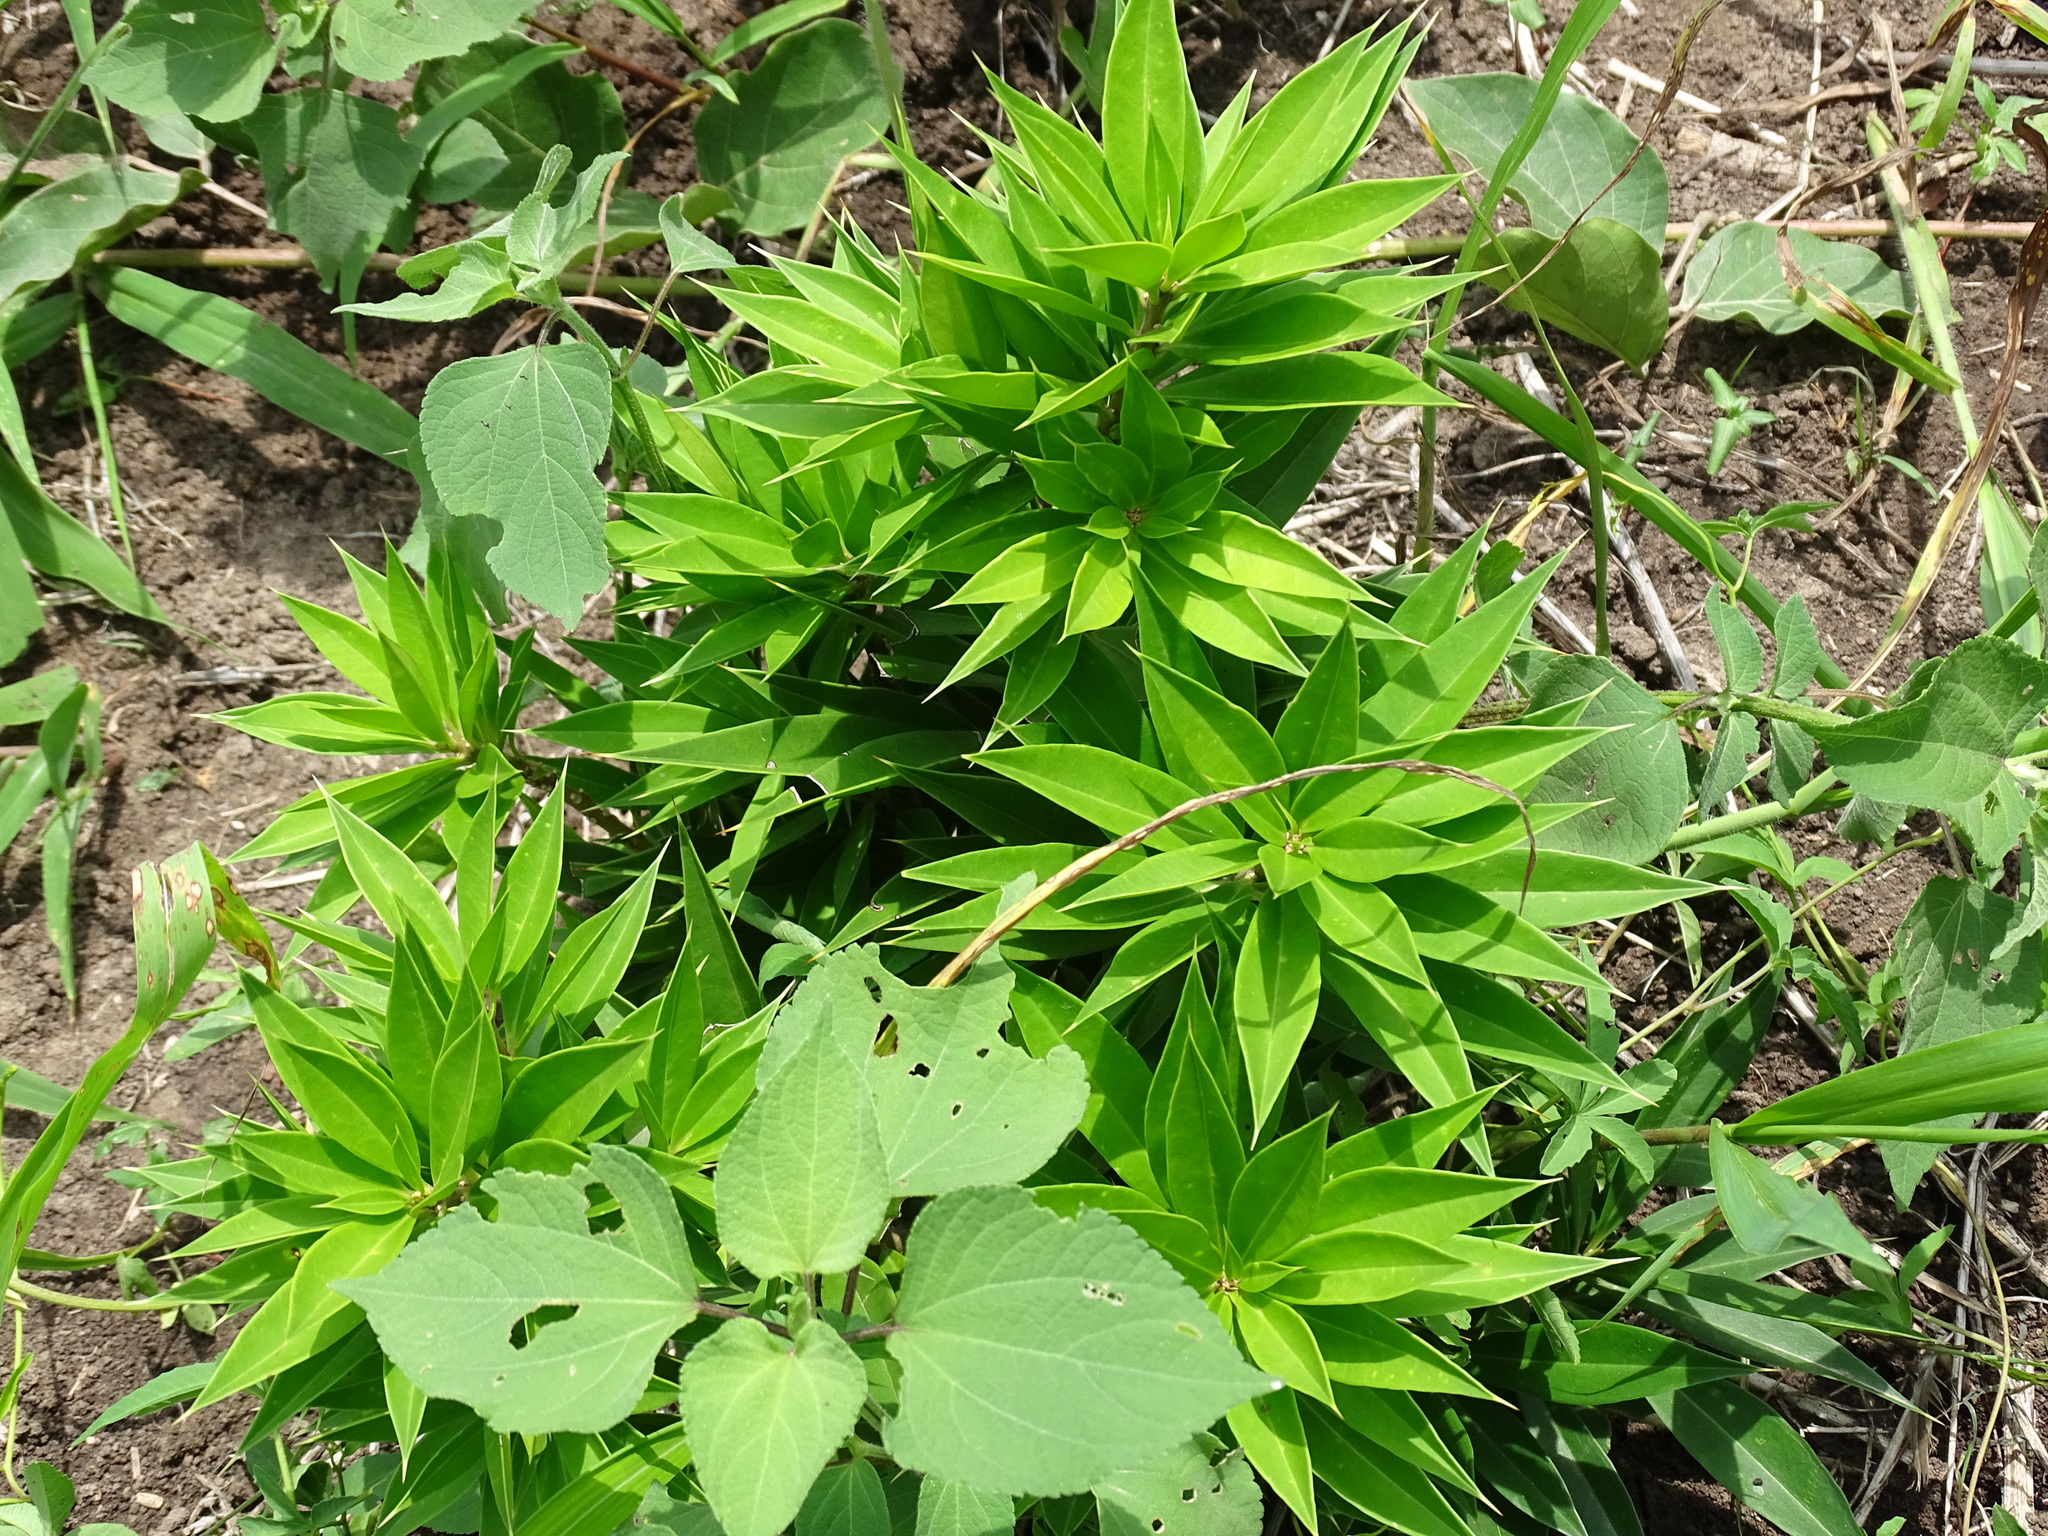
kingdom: Plantae
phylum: Tracheophyta
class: Magnoliopsida
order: Ericales
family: Primulaceae
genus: Bonellia
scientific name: Bonellia macrocarpa
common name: Primrose
